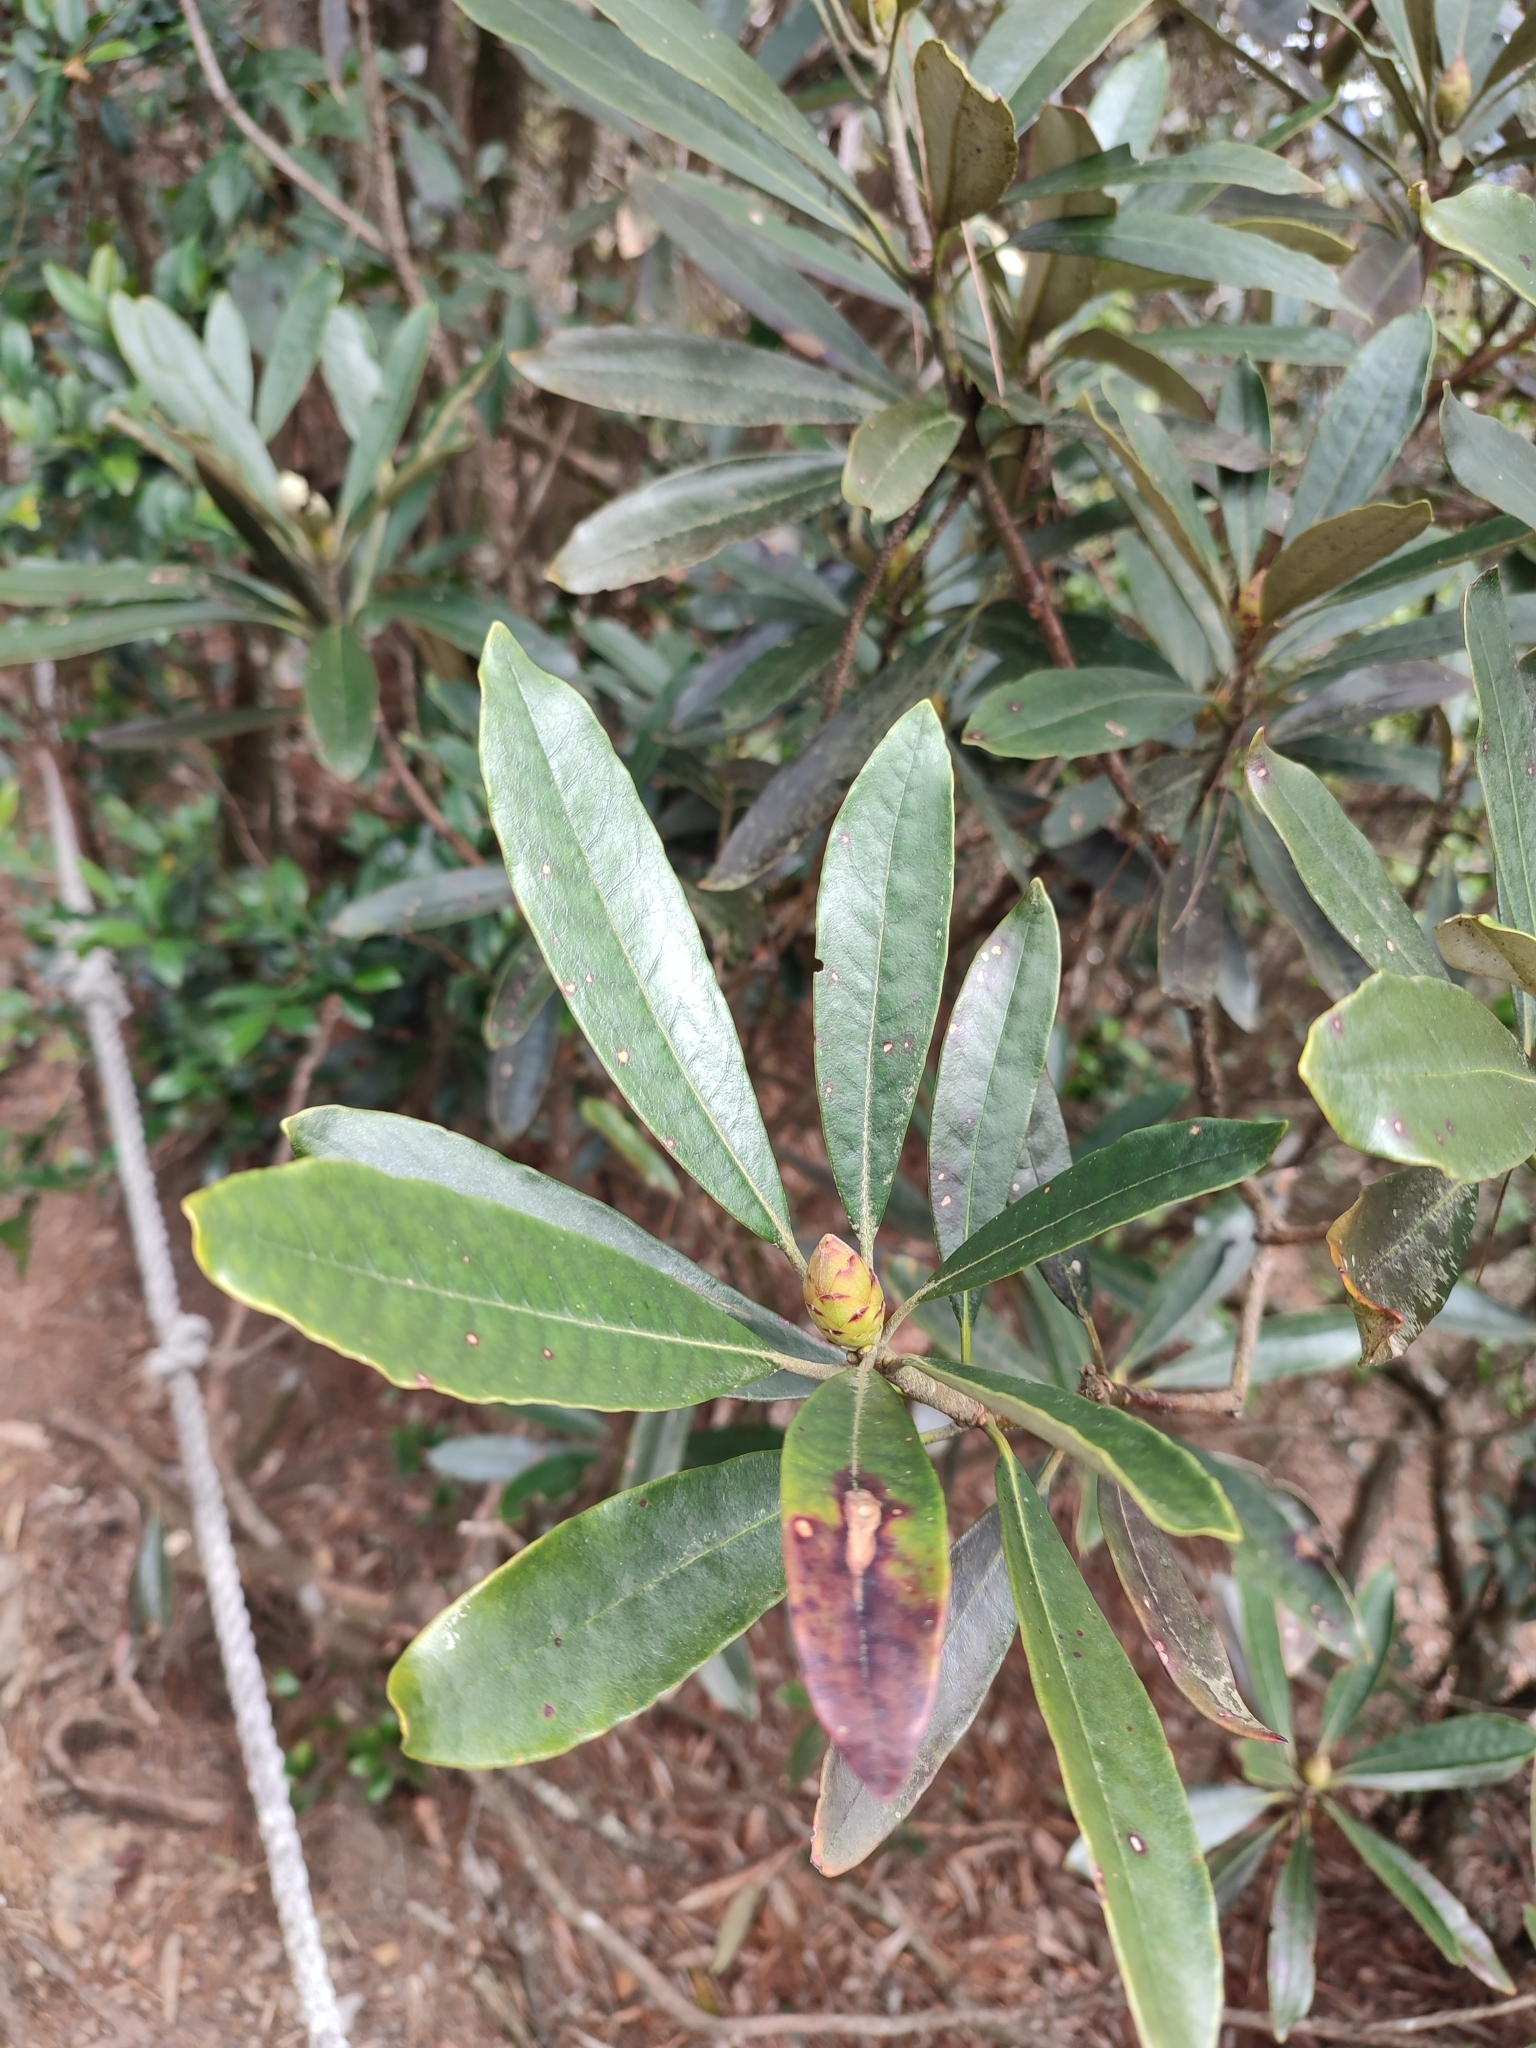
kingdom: Plantae
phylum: Tracheophyta
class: Magnoliopsida
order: Ericales
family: Ericaceae
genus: Rhododendron
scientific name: Rhododendron formosanum
